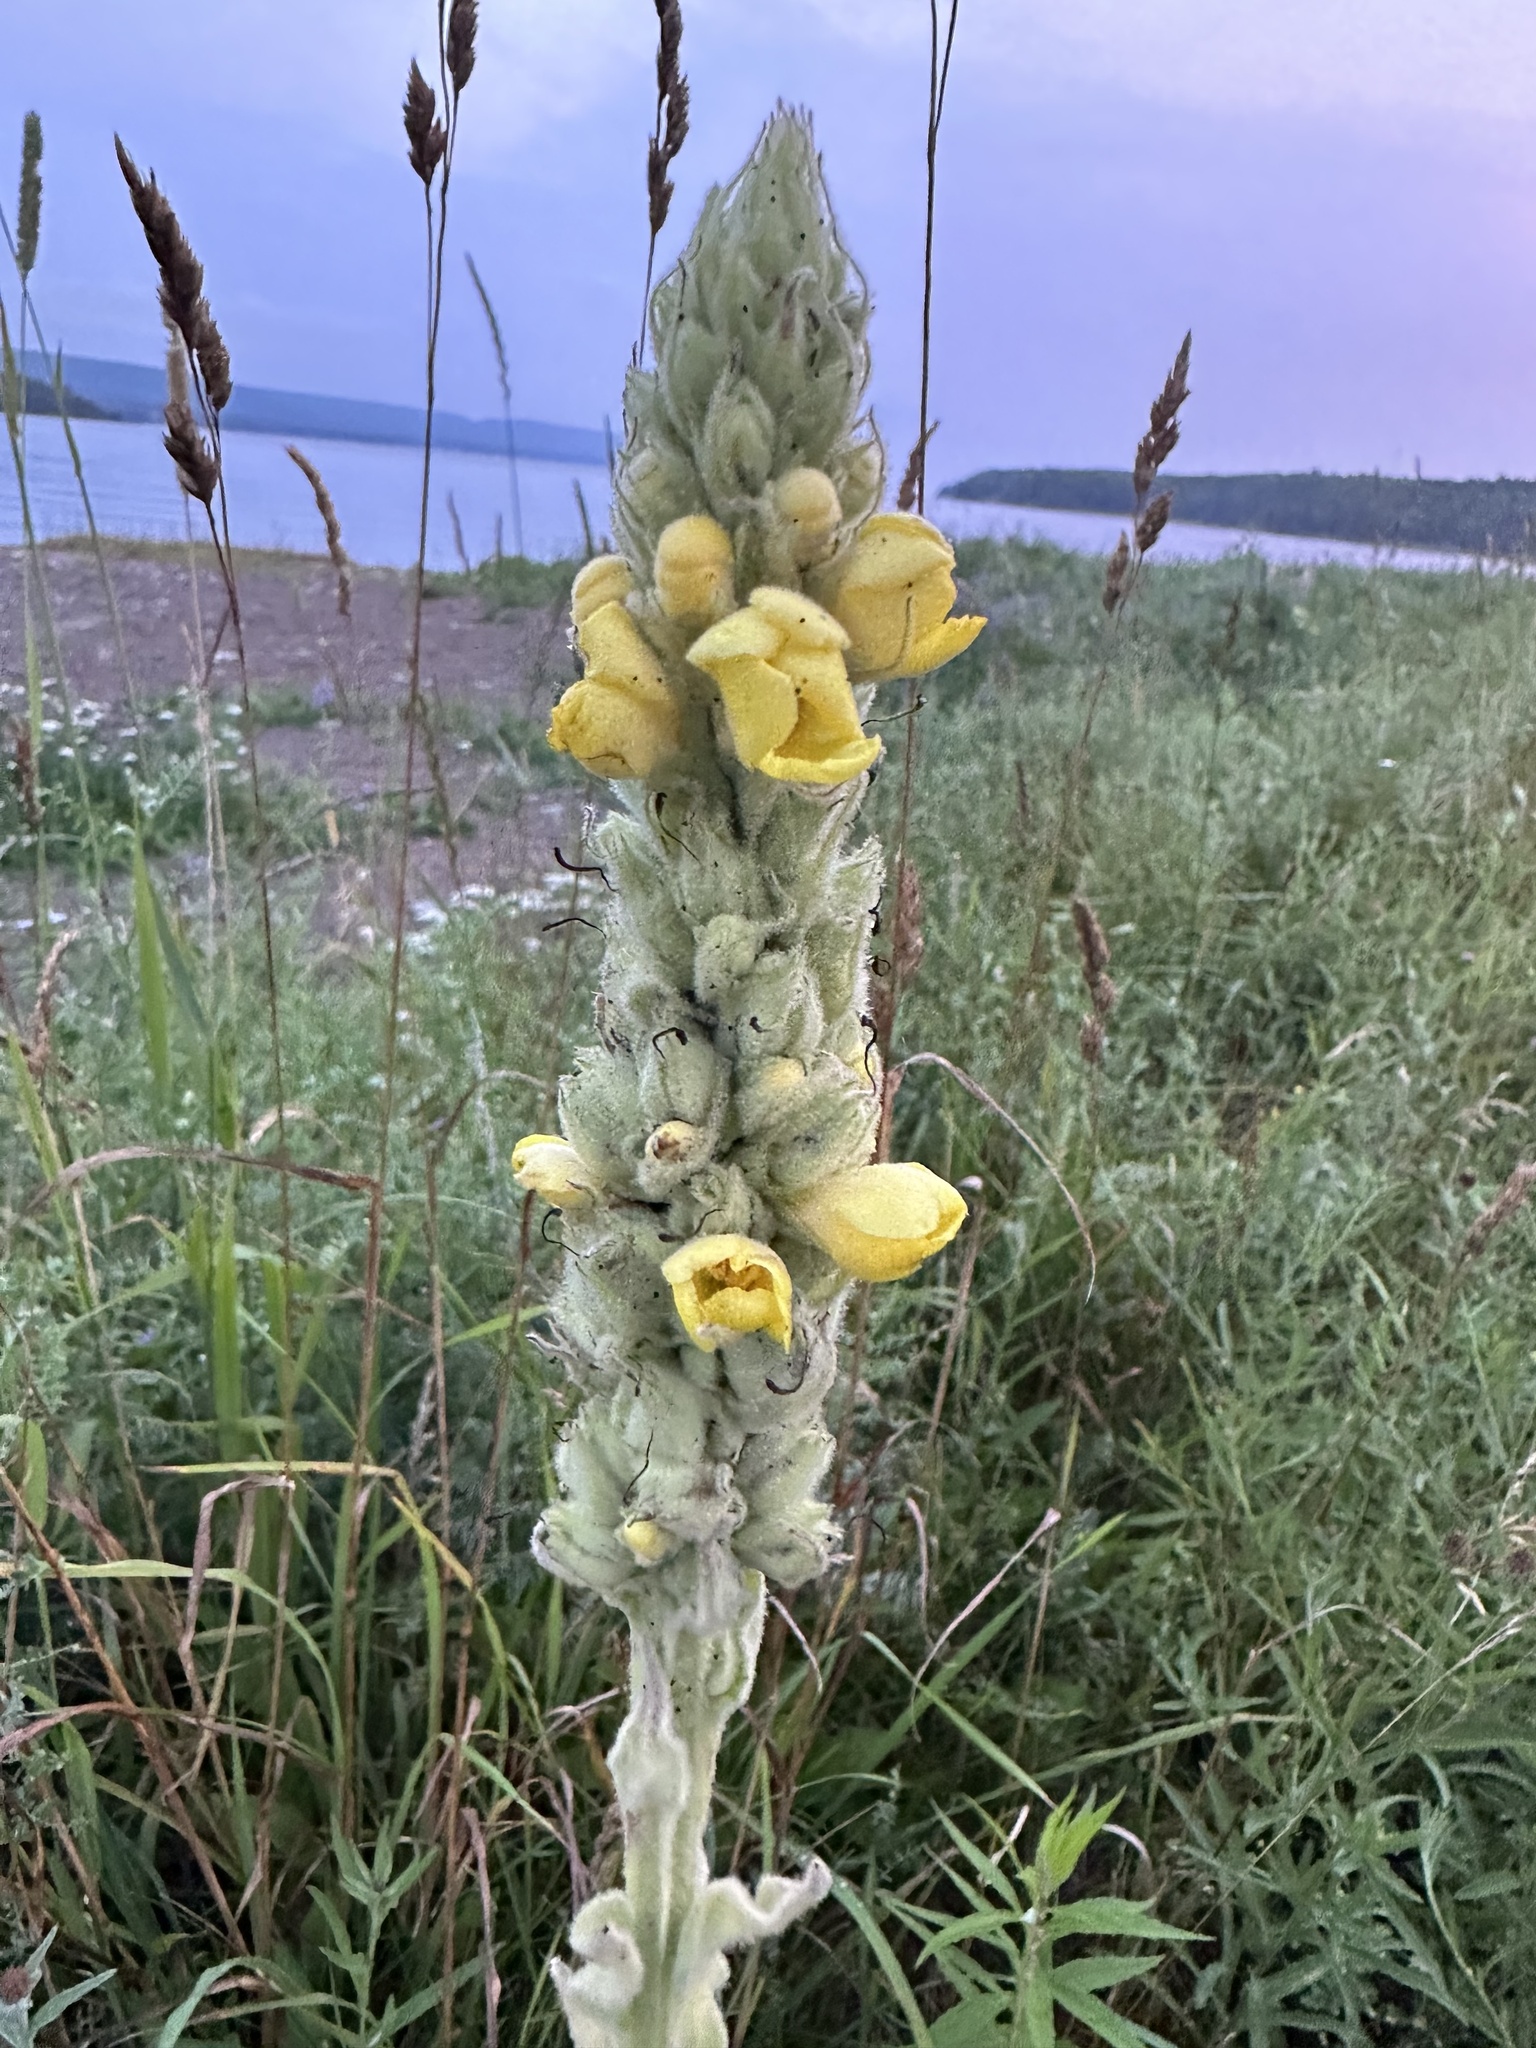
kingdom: Plantae
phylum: Tracheophyta
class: Magnoliopsida
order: Lamiales
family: Scrophulariaceae
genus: Verbascum
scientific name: Verbascum thapsus
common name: Common mullein
